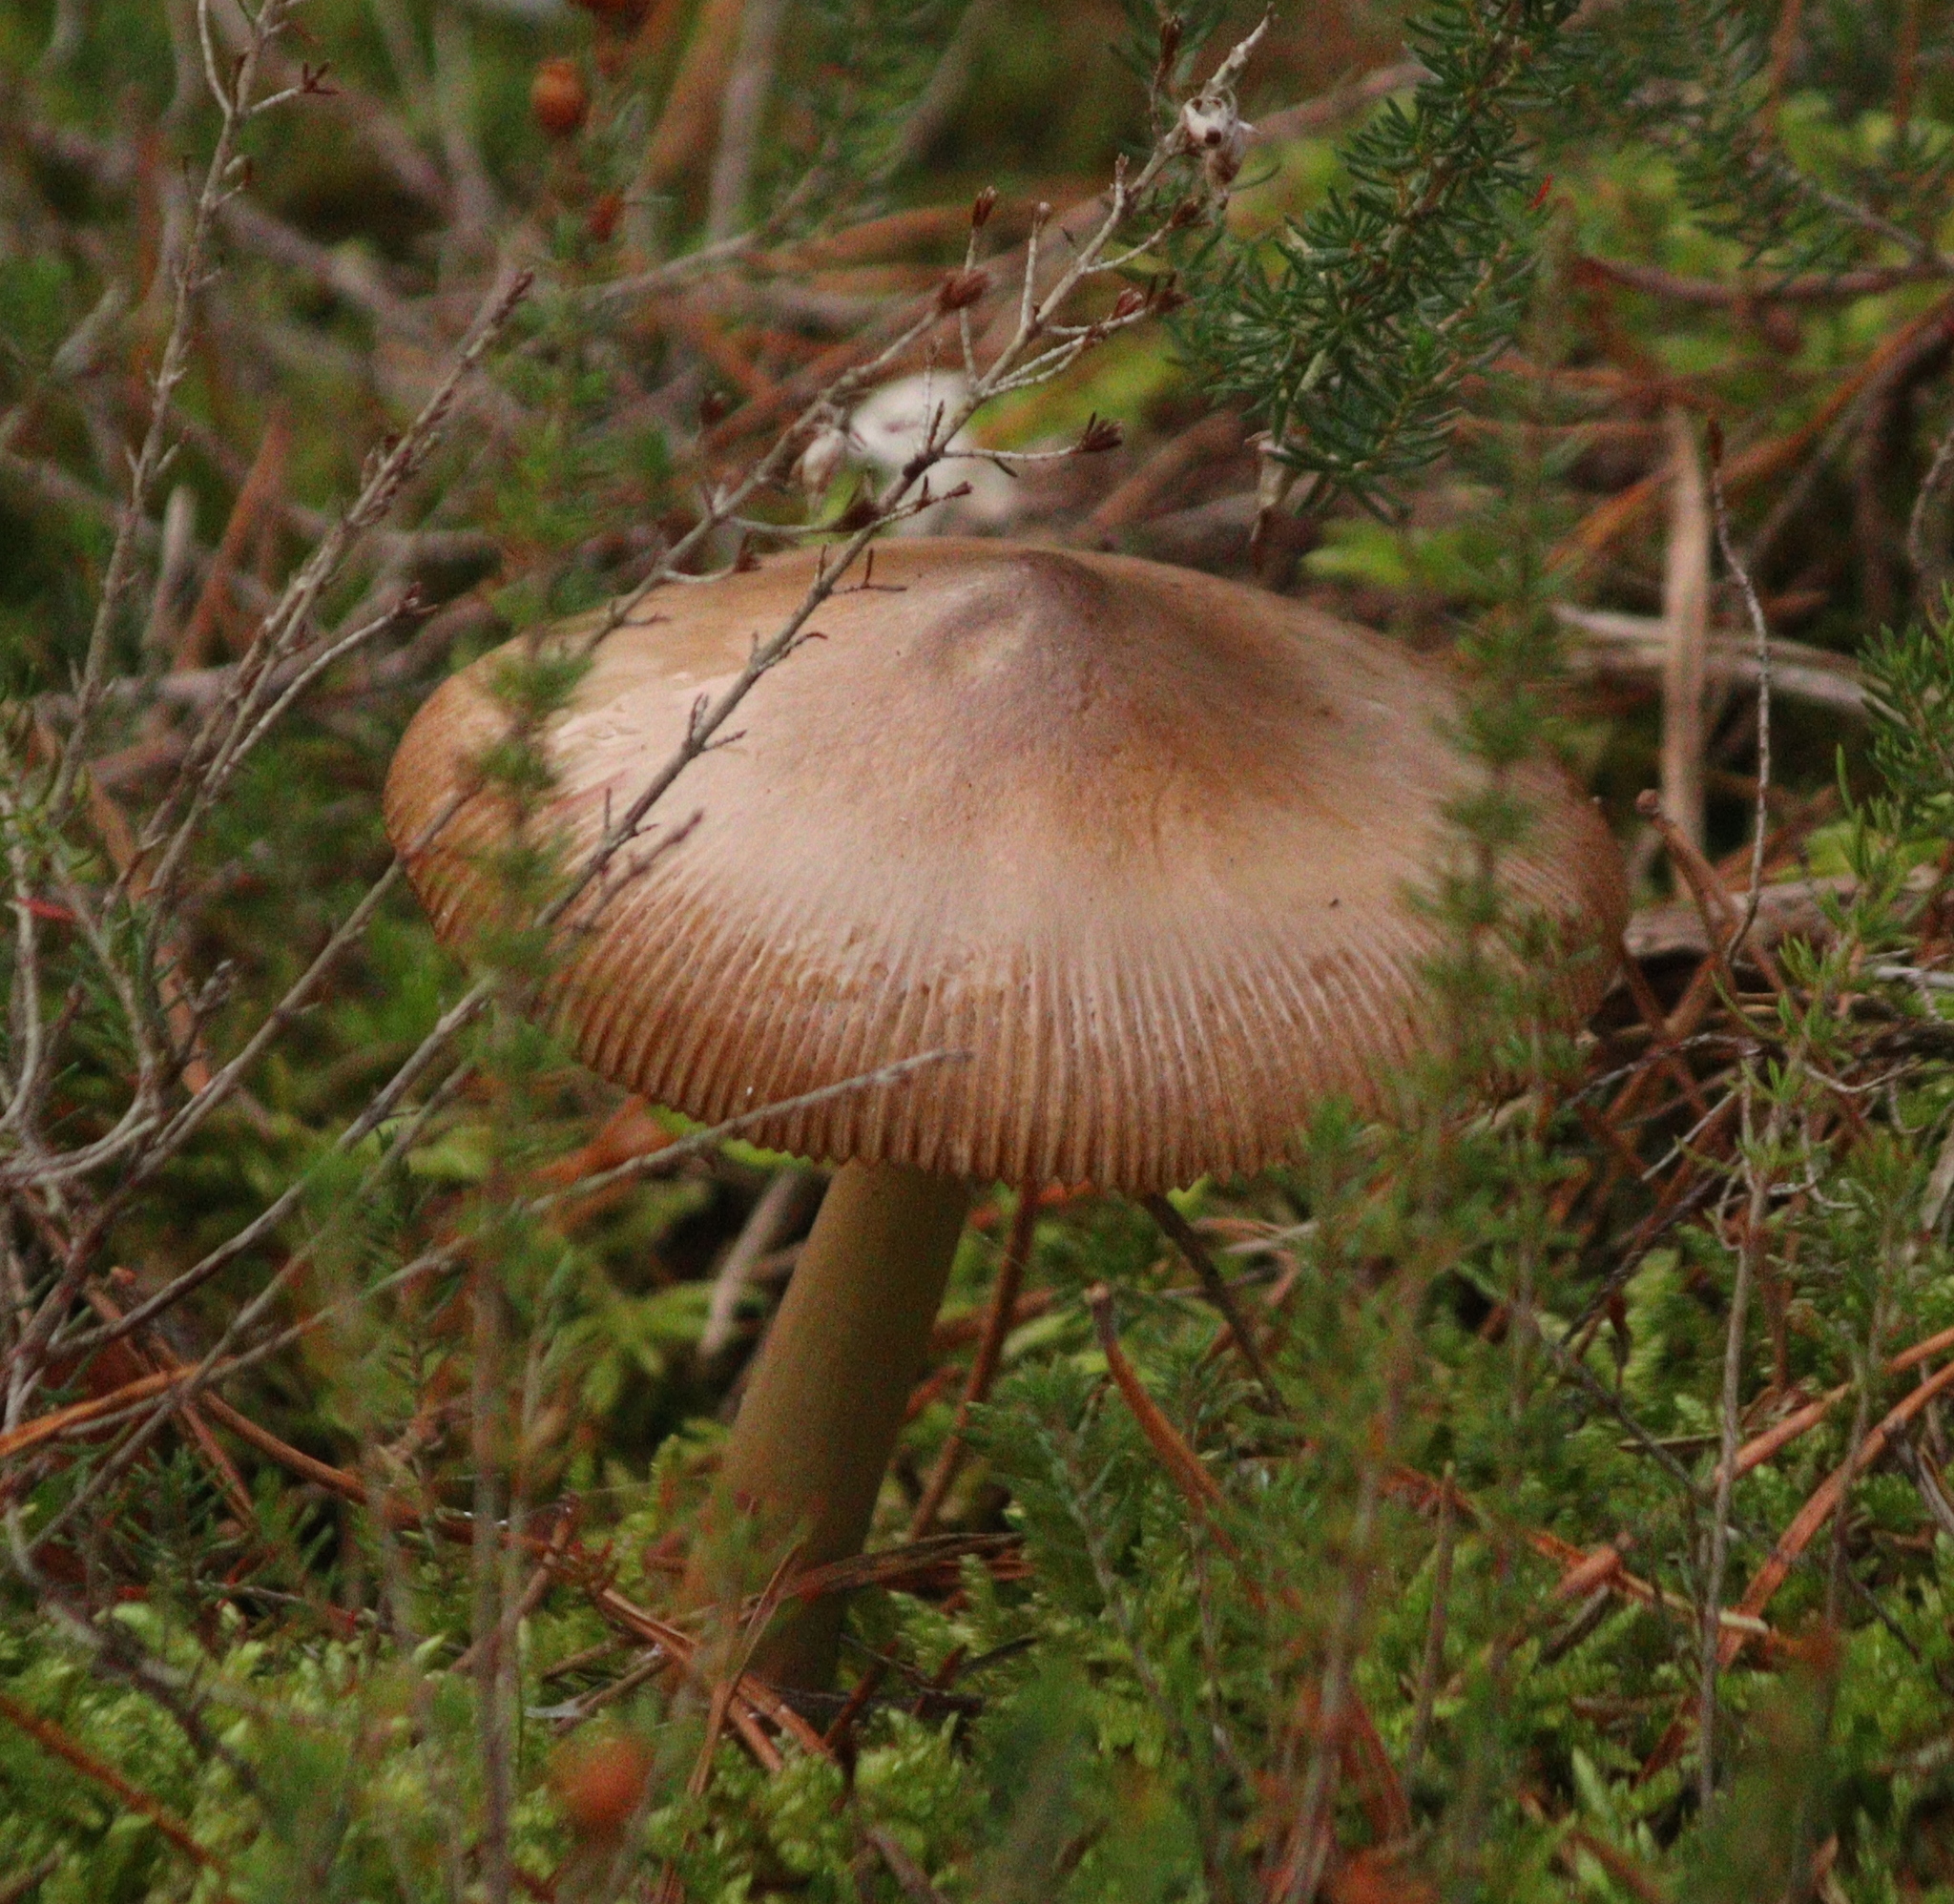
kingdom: Fungi
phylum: Basidiomycota
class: Agaricomycetes
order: Agaricales
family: Amanitaceae
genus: Amanita
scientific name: Amanita fulva
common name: Tawny grisette
